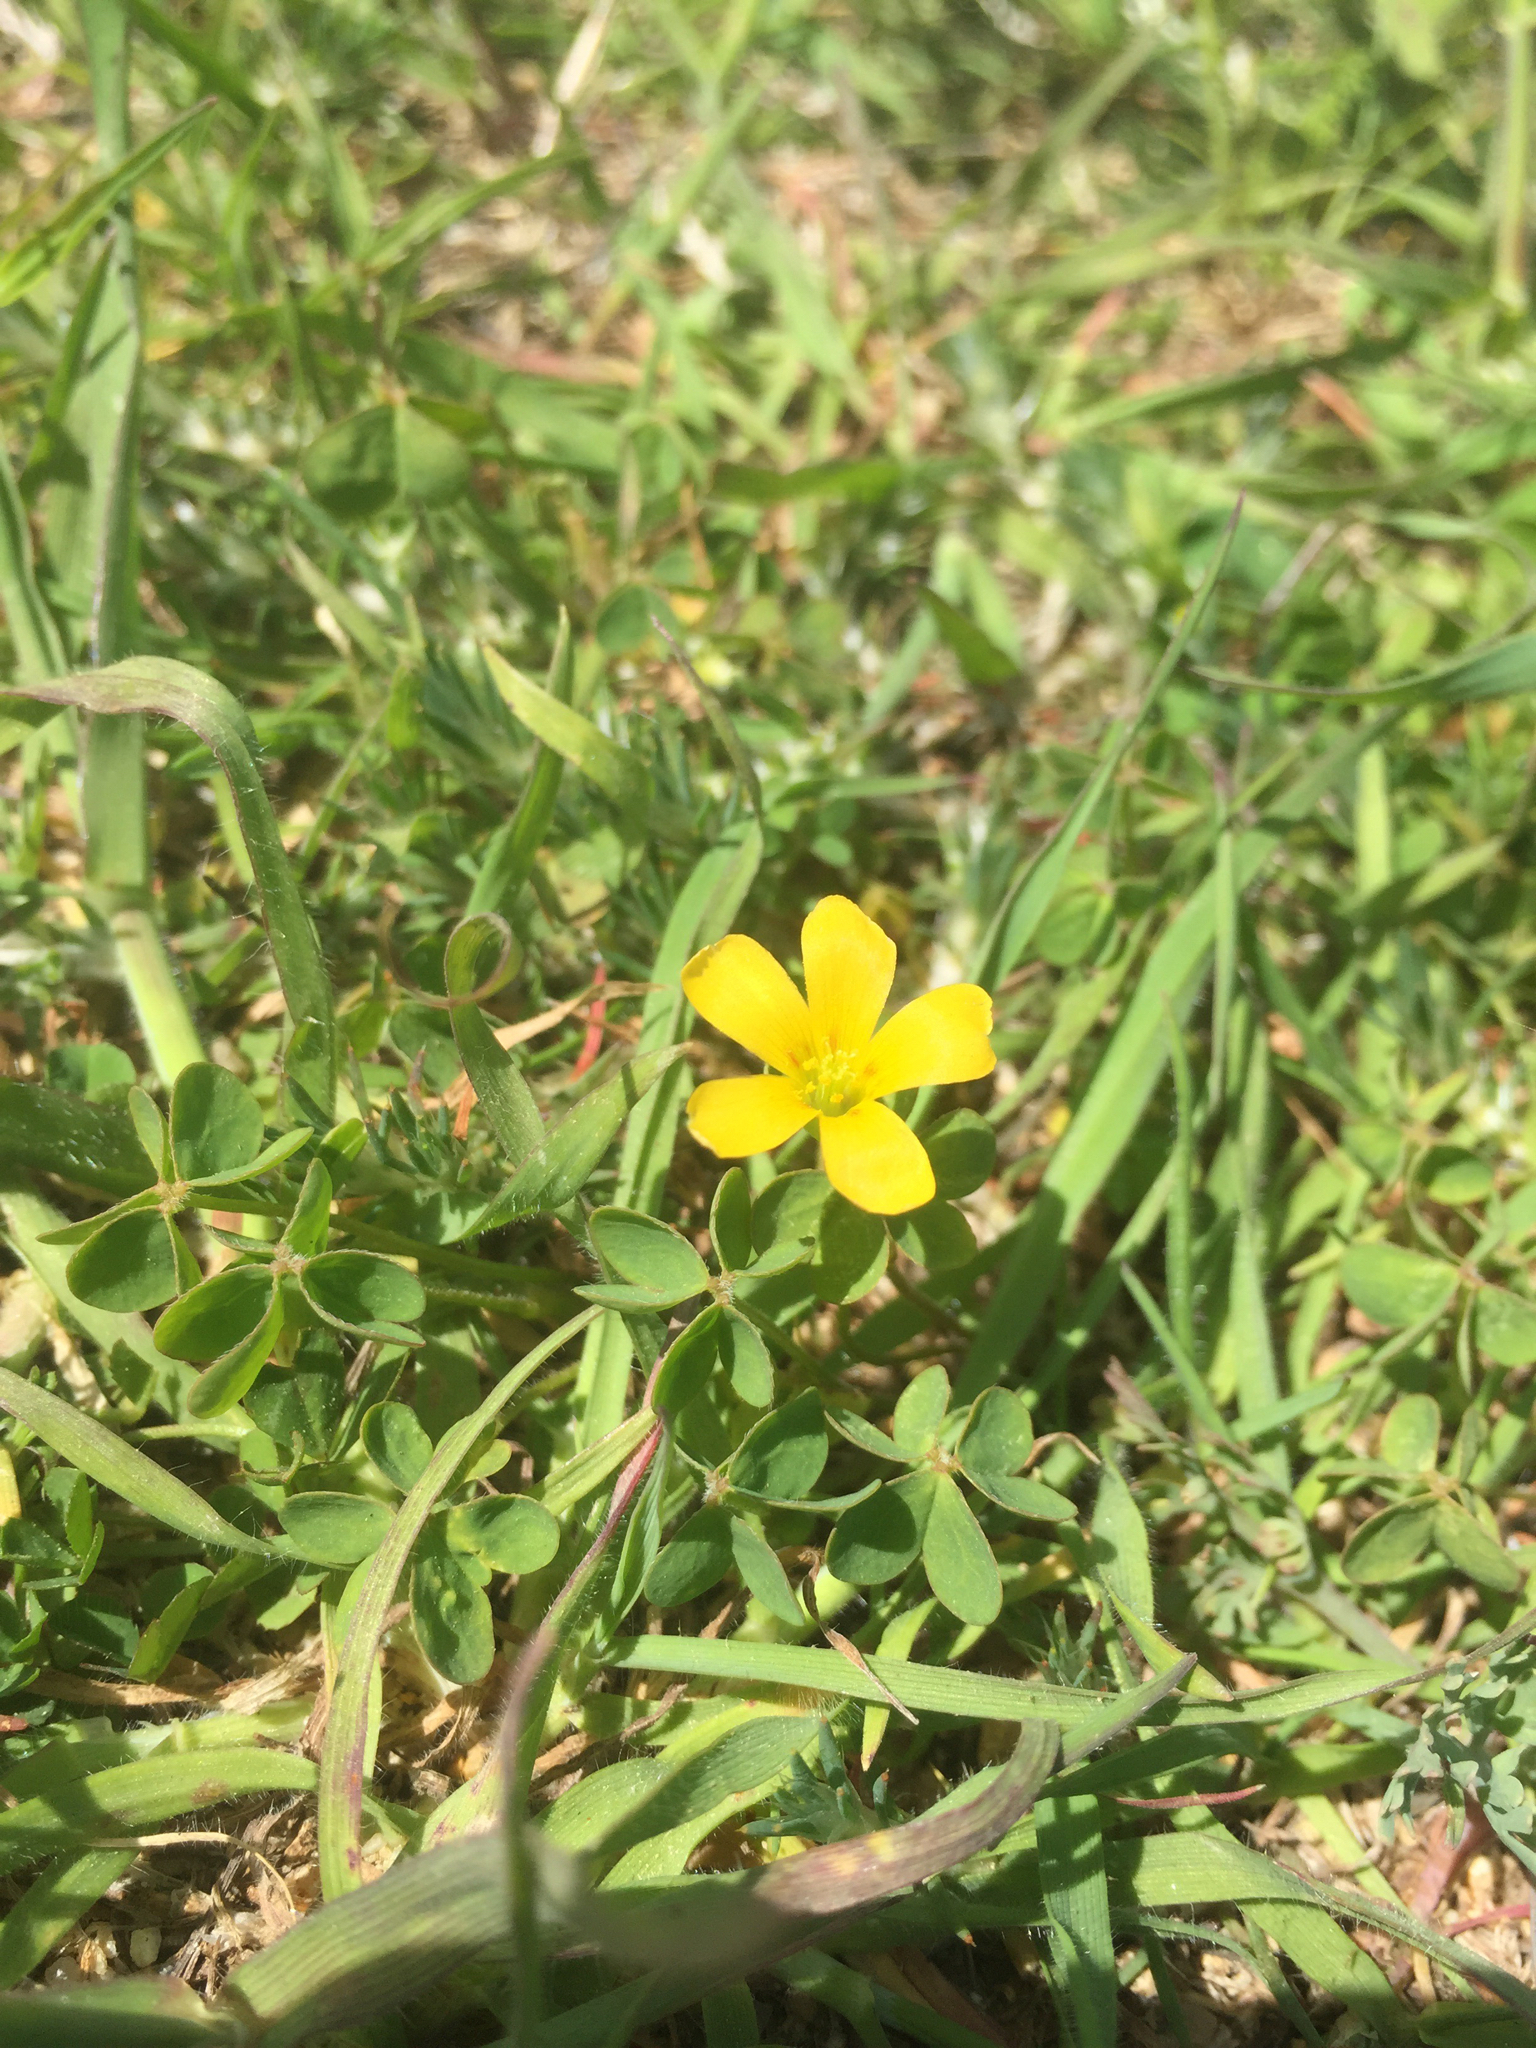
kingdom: Plantae
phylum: Tracheophyta
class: Magnoliopsida
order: Oxalidales
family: Oxalidaceae
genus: Oxalis
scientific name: Oxalis corniculata
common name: Procumbent yellow-sorrel
